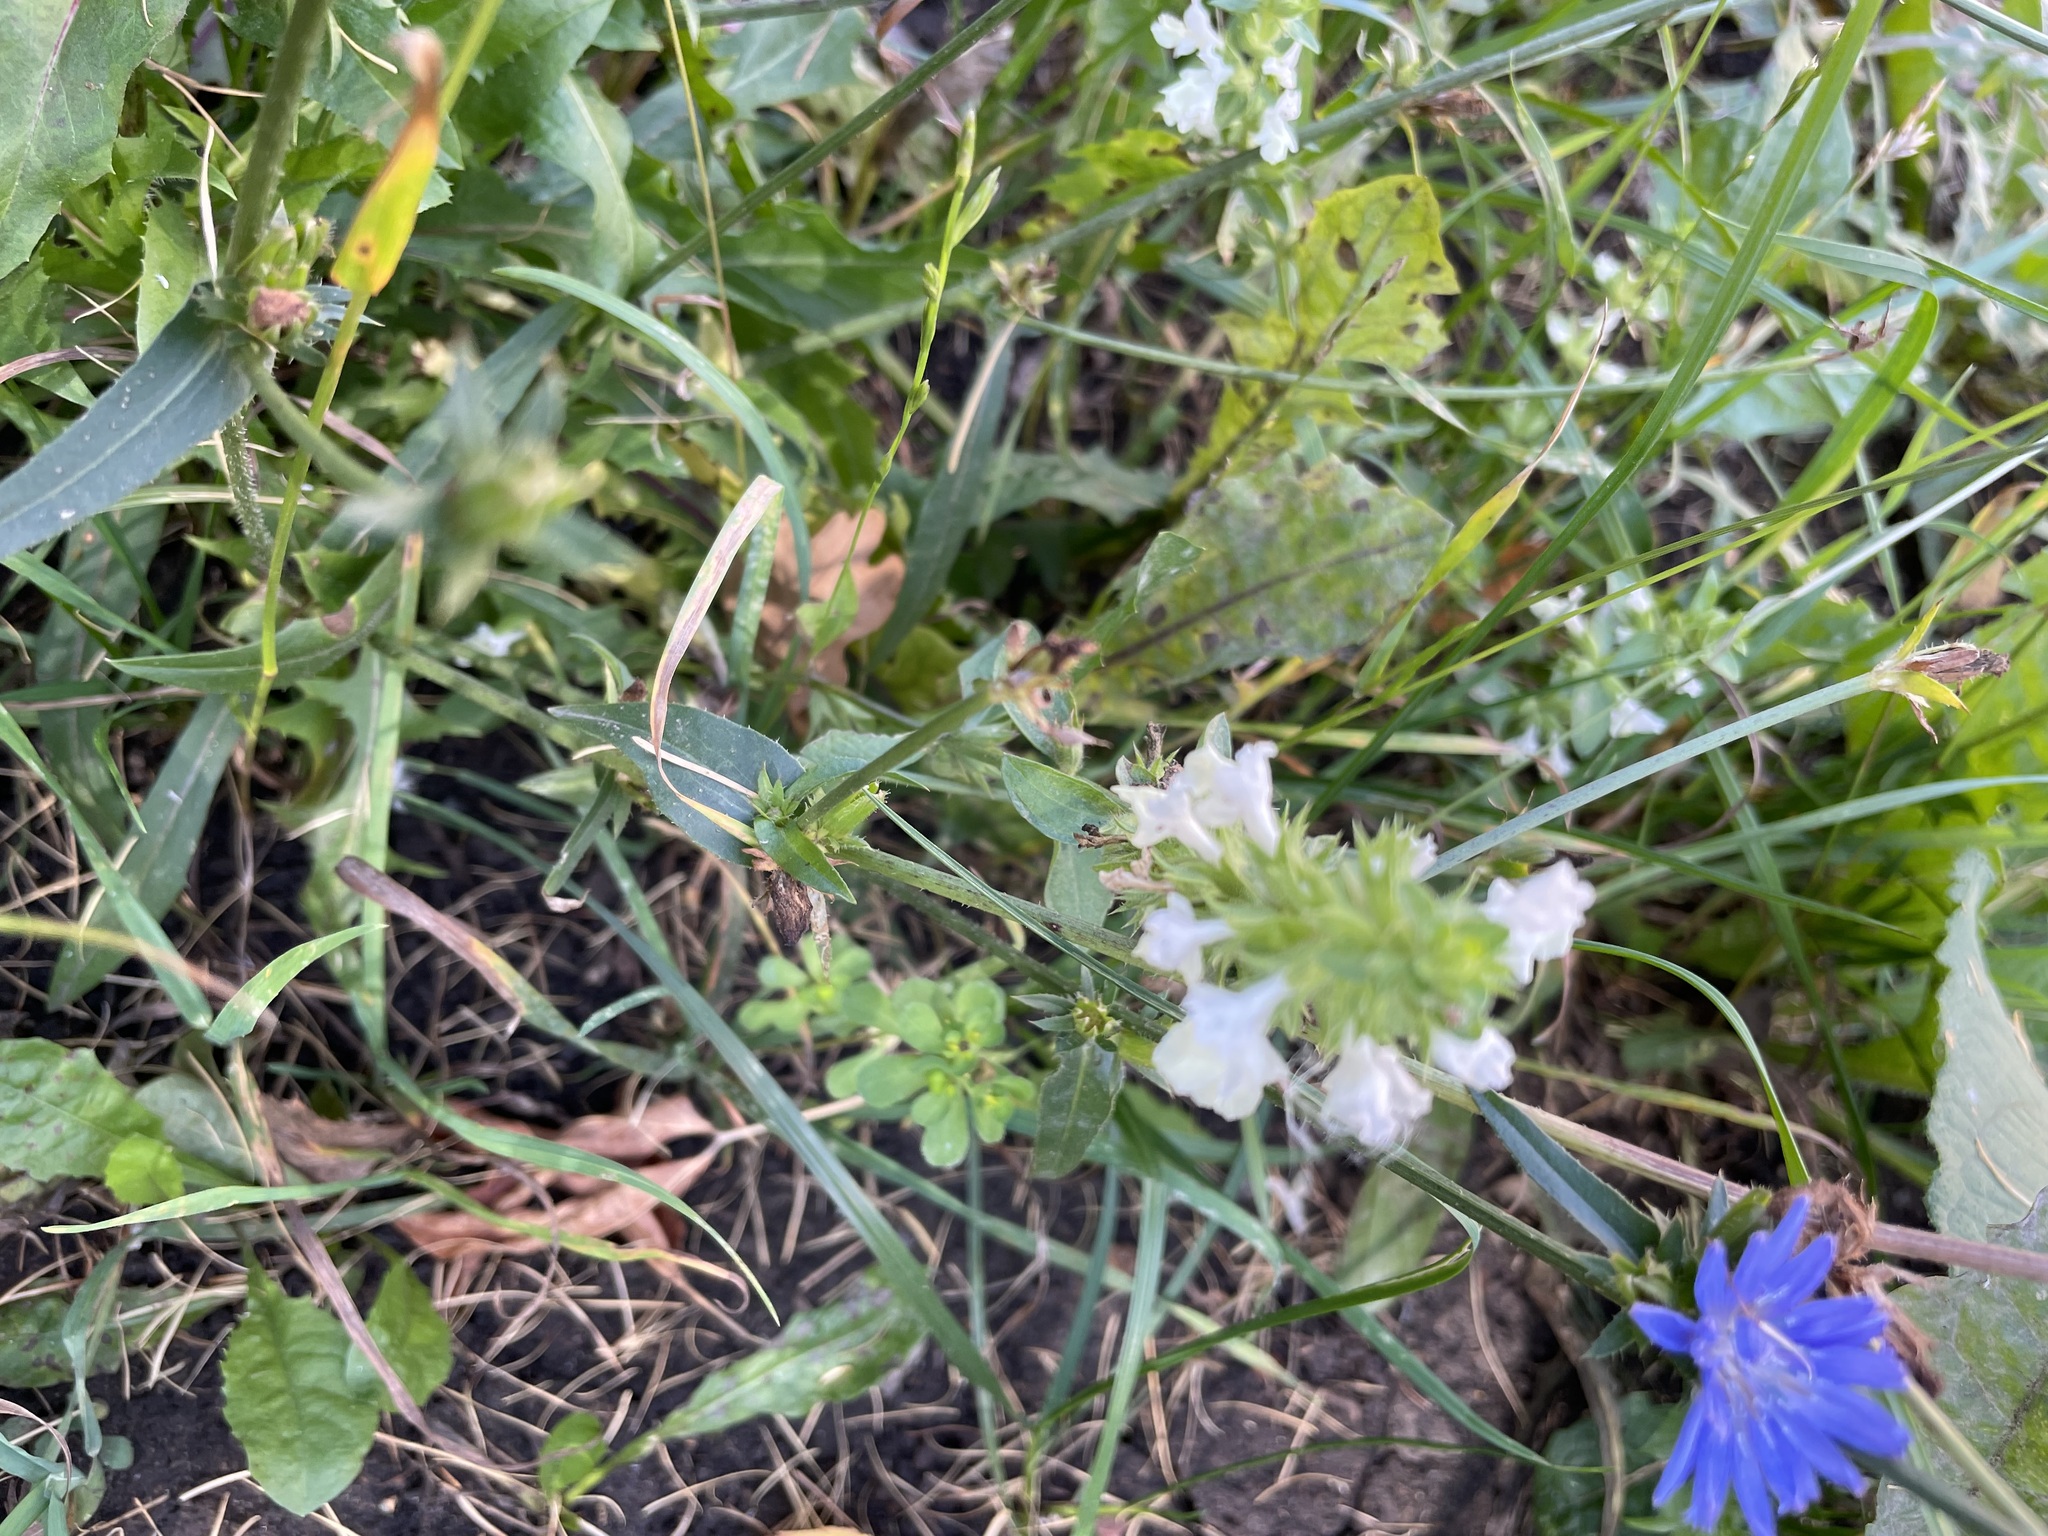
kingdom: Plantae
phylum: Tracheophyta
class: Magnoliopsida
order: Lamiales
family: Lamiaceae
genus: Stachys
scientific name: Stachys annua
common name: Annual yellow-woundwort
